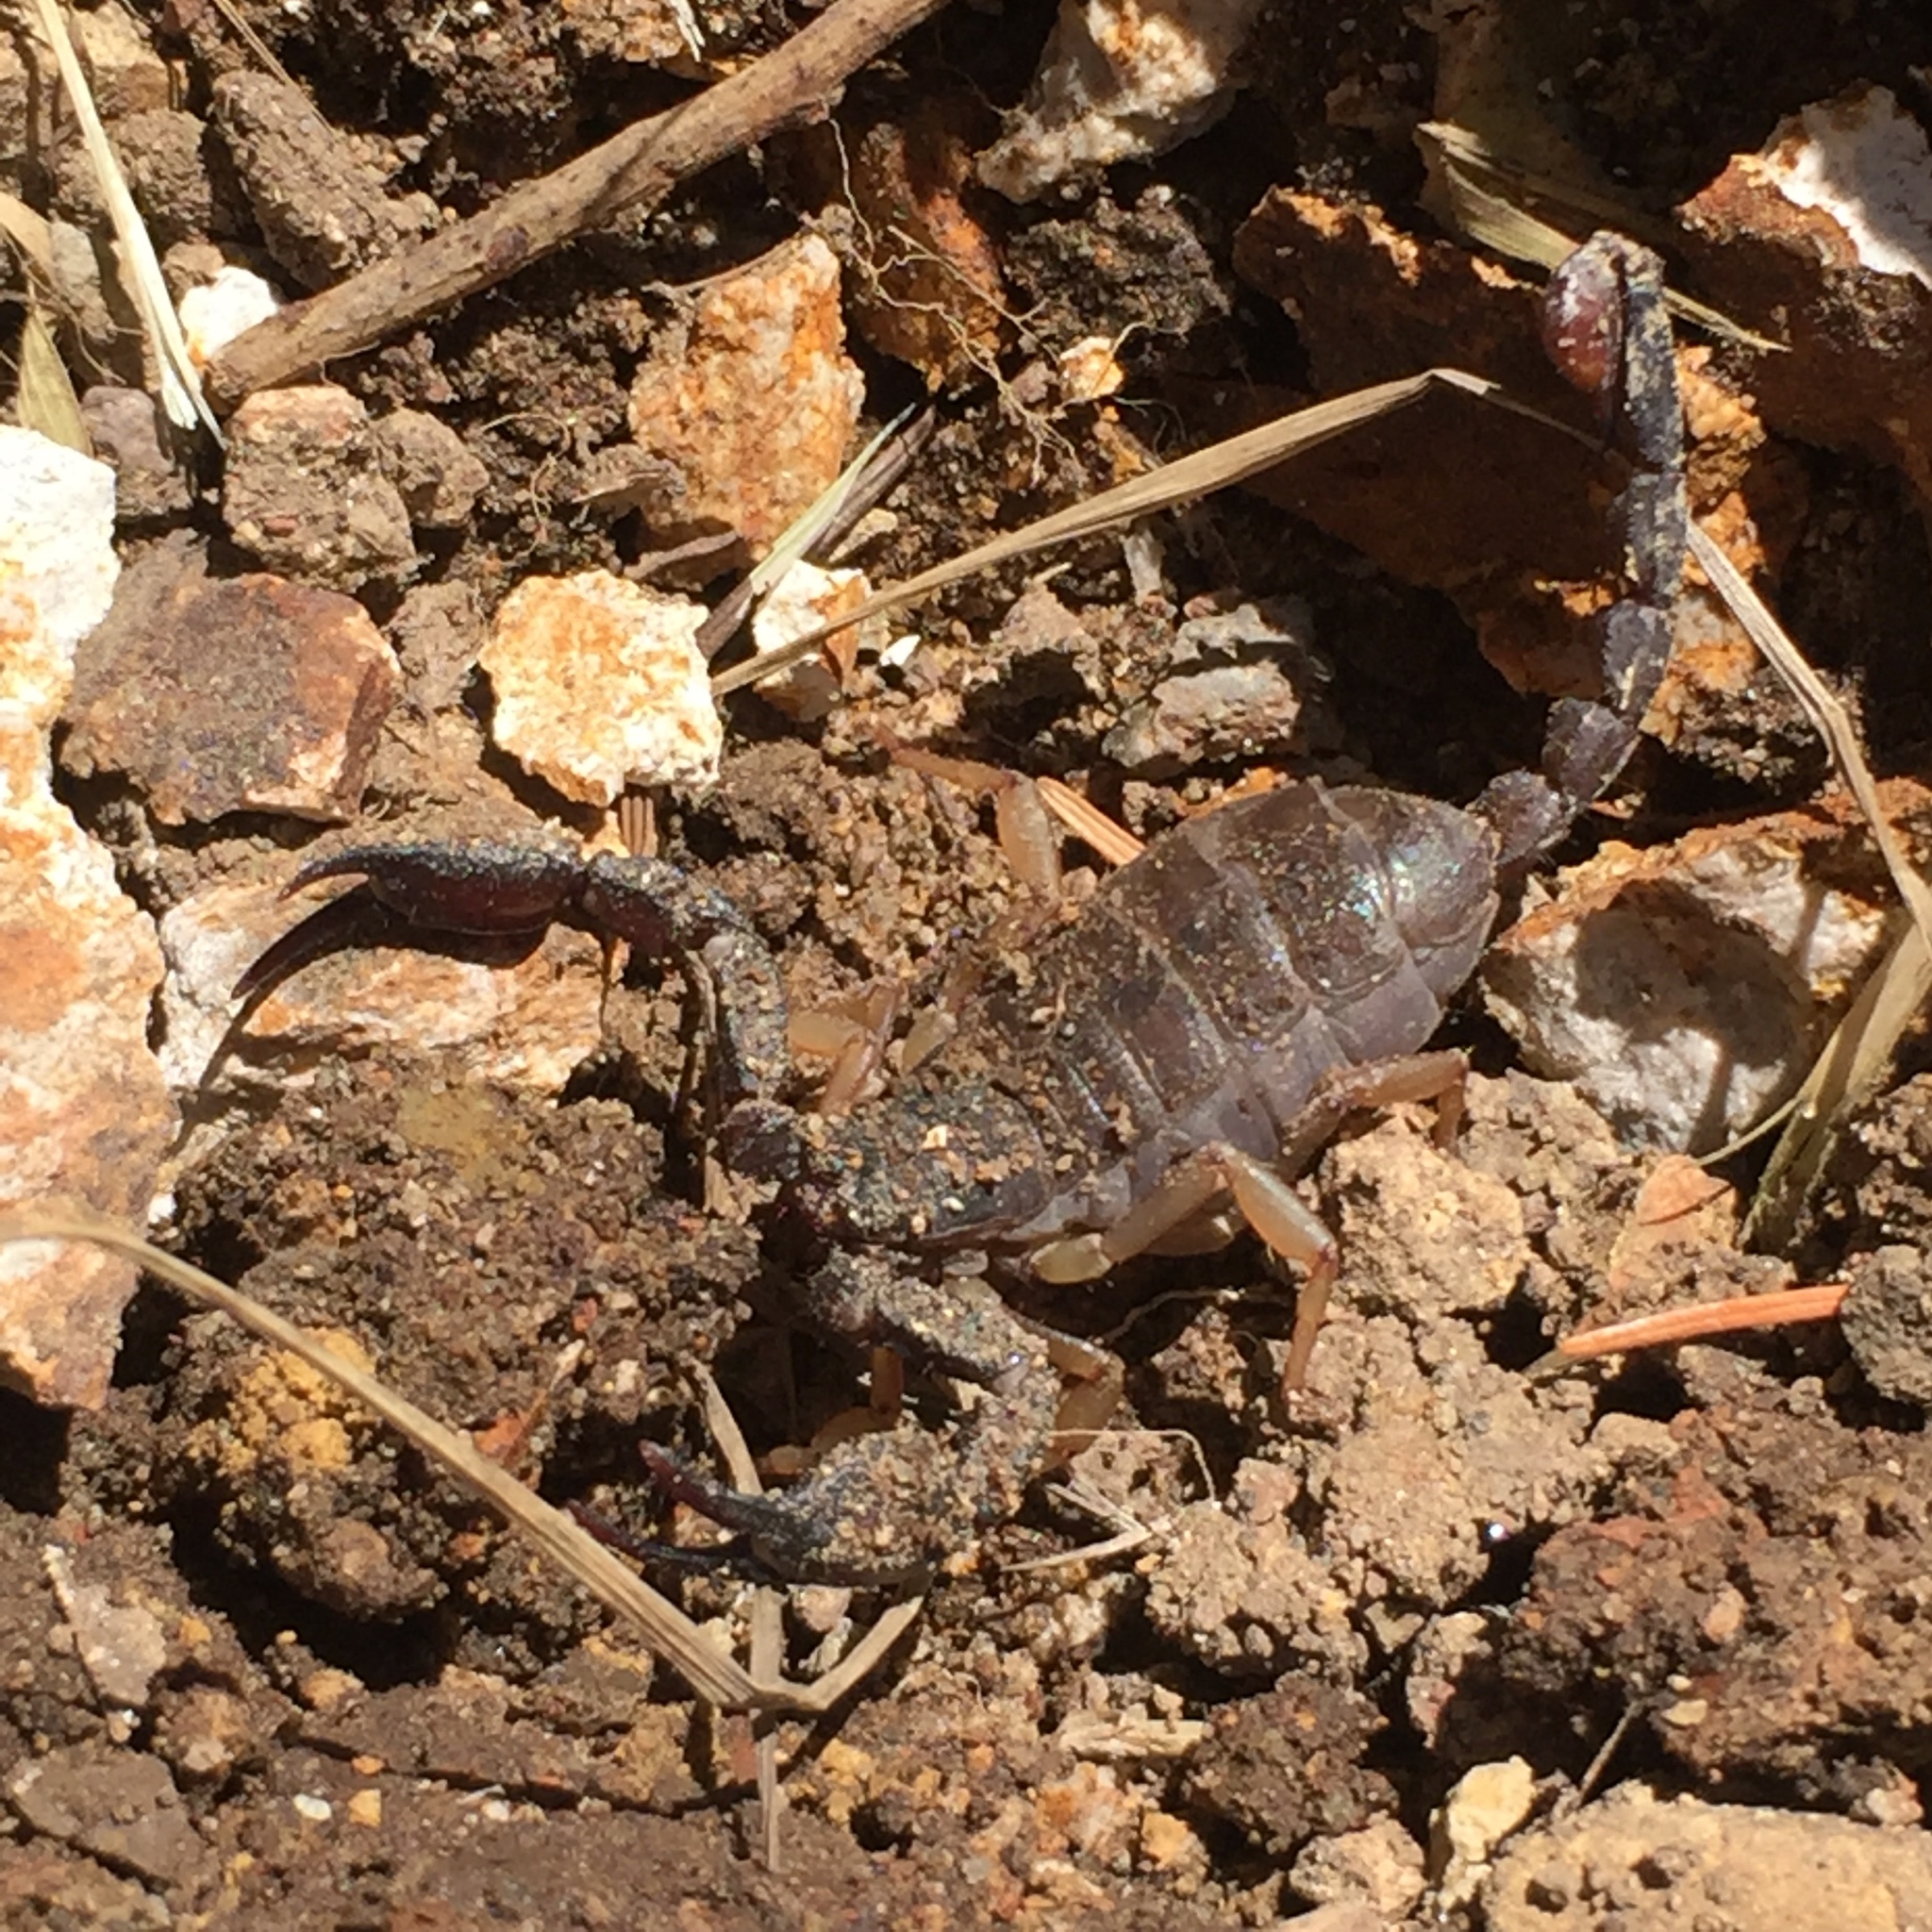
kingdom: Animalia
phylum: Arthropoda
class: Arachnida
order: Scorpiones
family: Chactidae
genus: Uroctonus
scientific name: Uroctonus mordax
